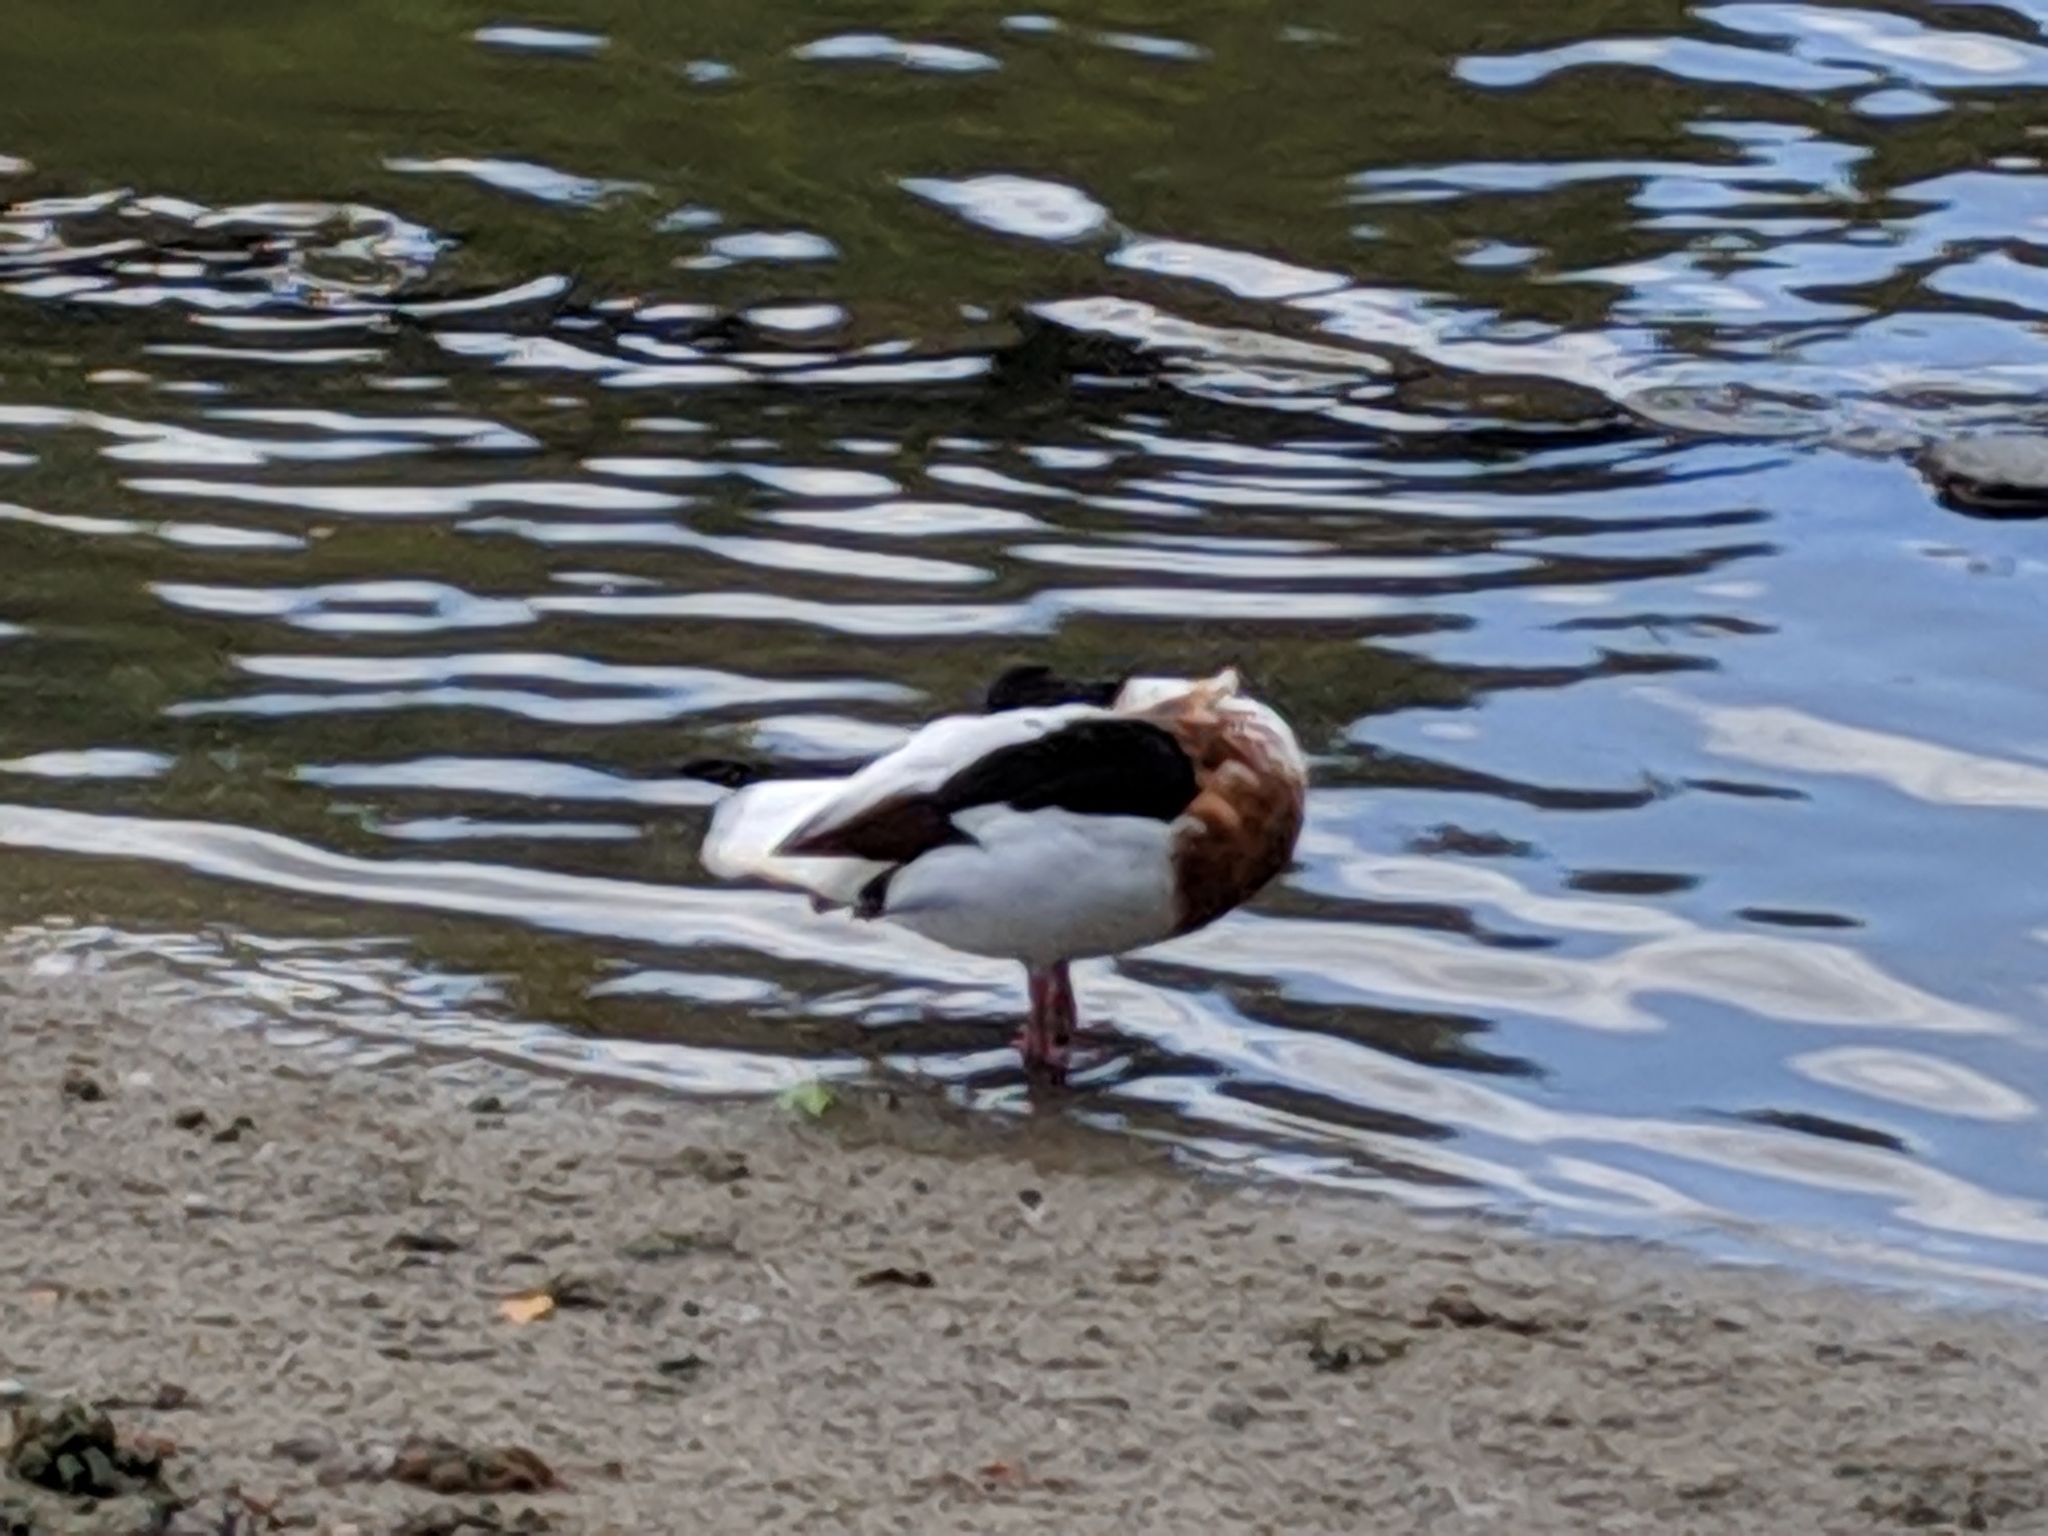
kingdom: Animalia
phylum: Chordata
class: Aves
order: Anseriformes
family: Anatidae
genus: Tadorna
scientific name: Tadorna tadorna
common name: Common shelduck
